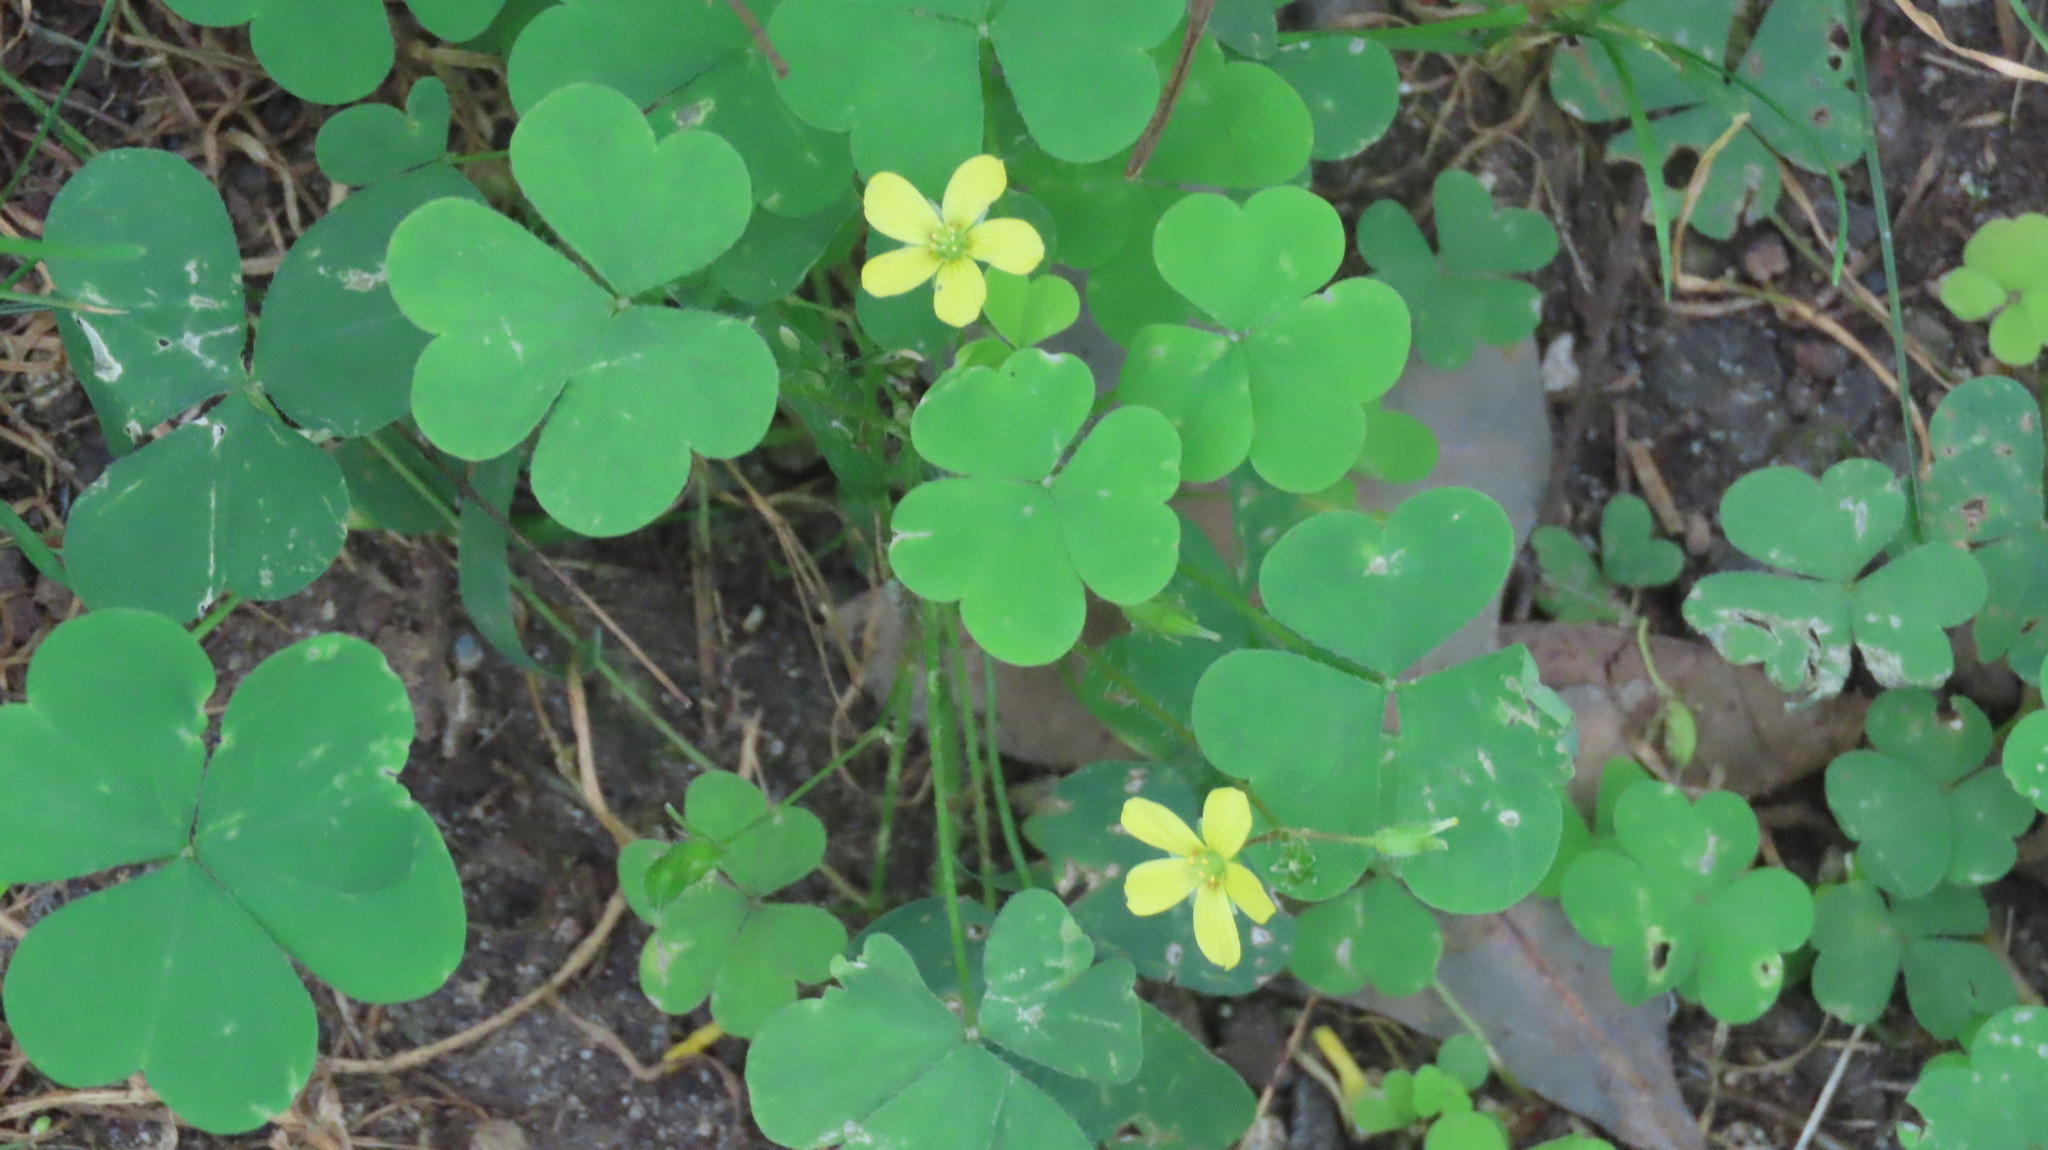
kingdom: Plantae
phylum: Tracheophyta
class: Magnoliopsida
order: Oxalidales
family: Oxalidaceae
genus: Oxalis
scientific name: Oxalis corniculata
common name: Procumbent yellow-sorrel
